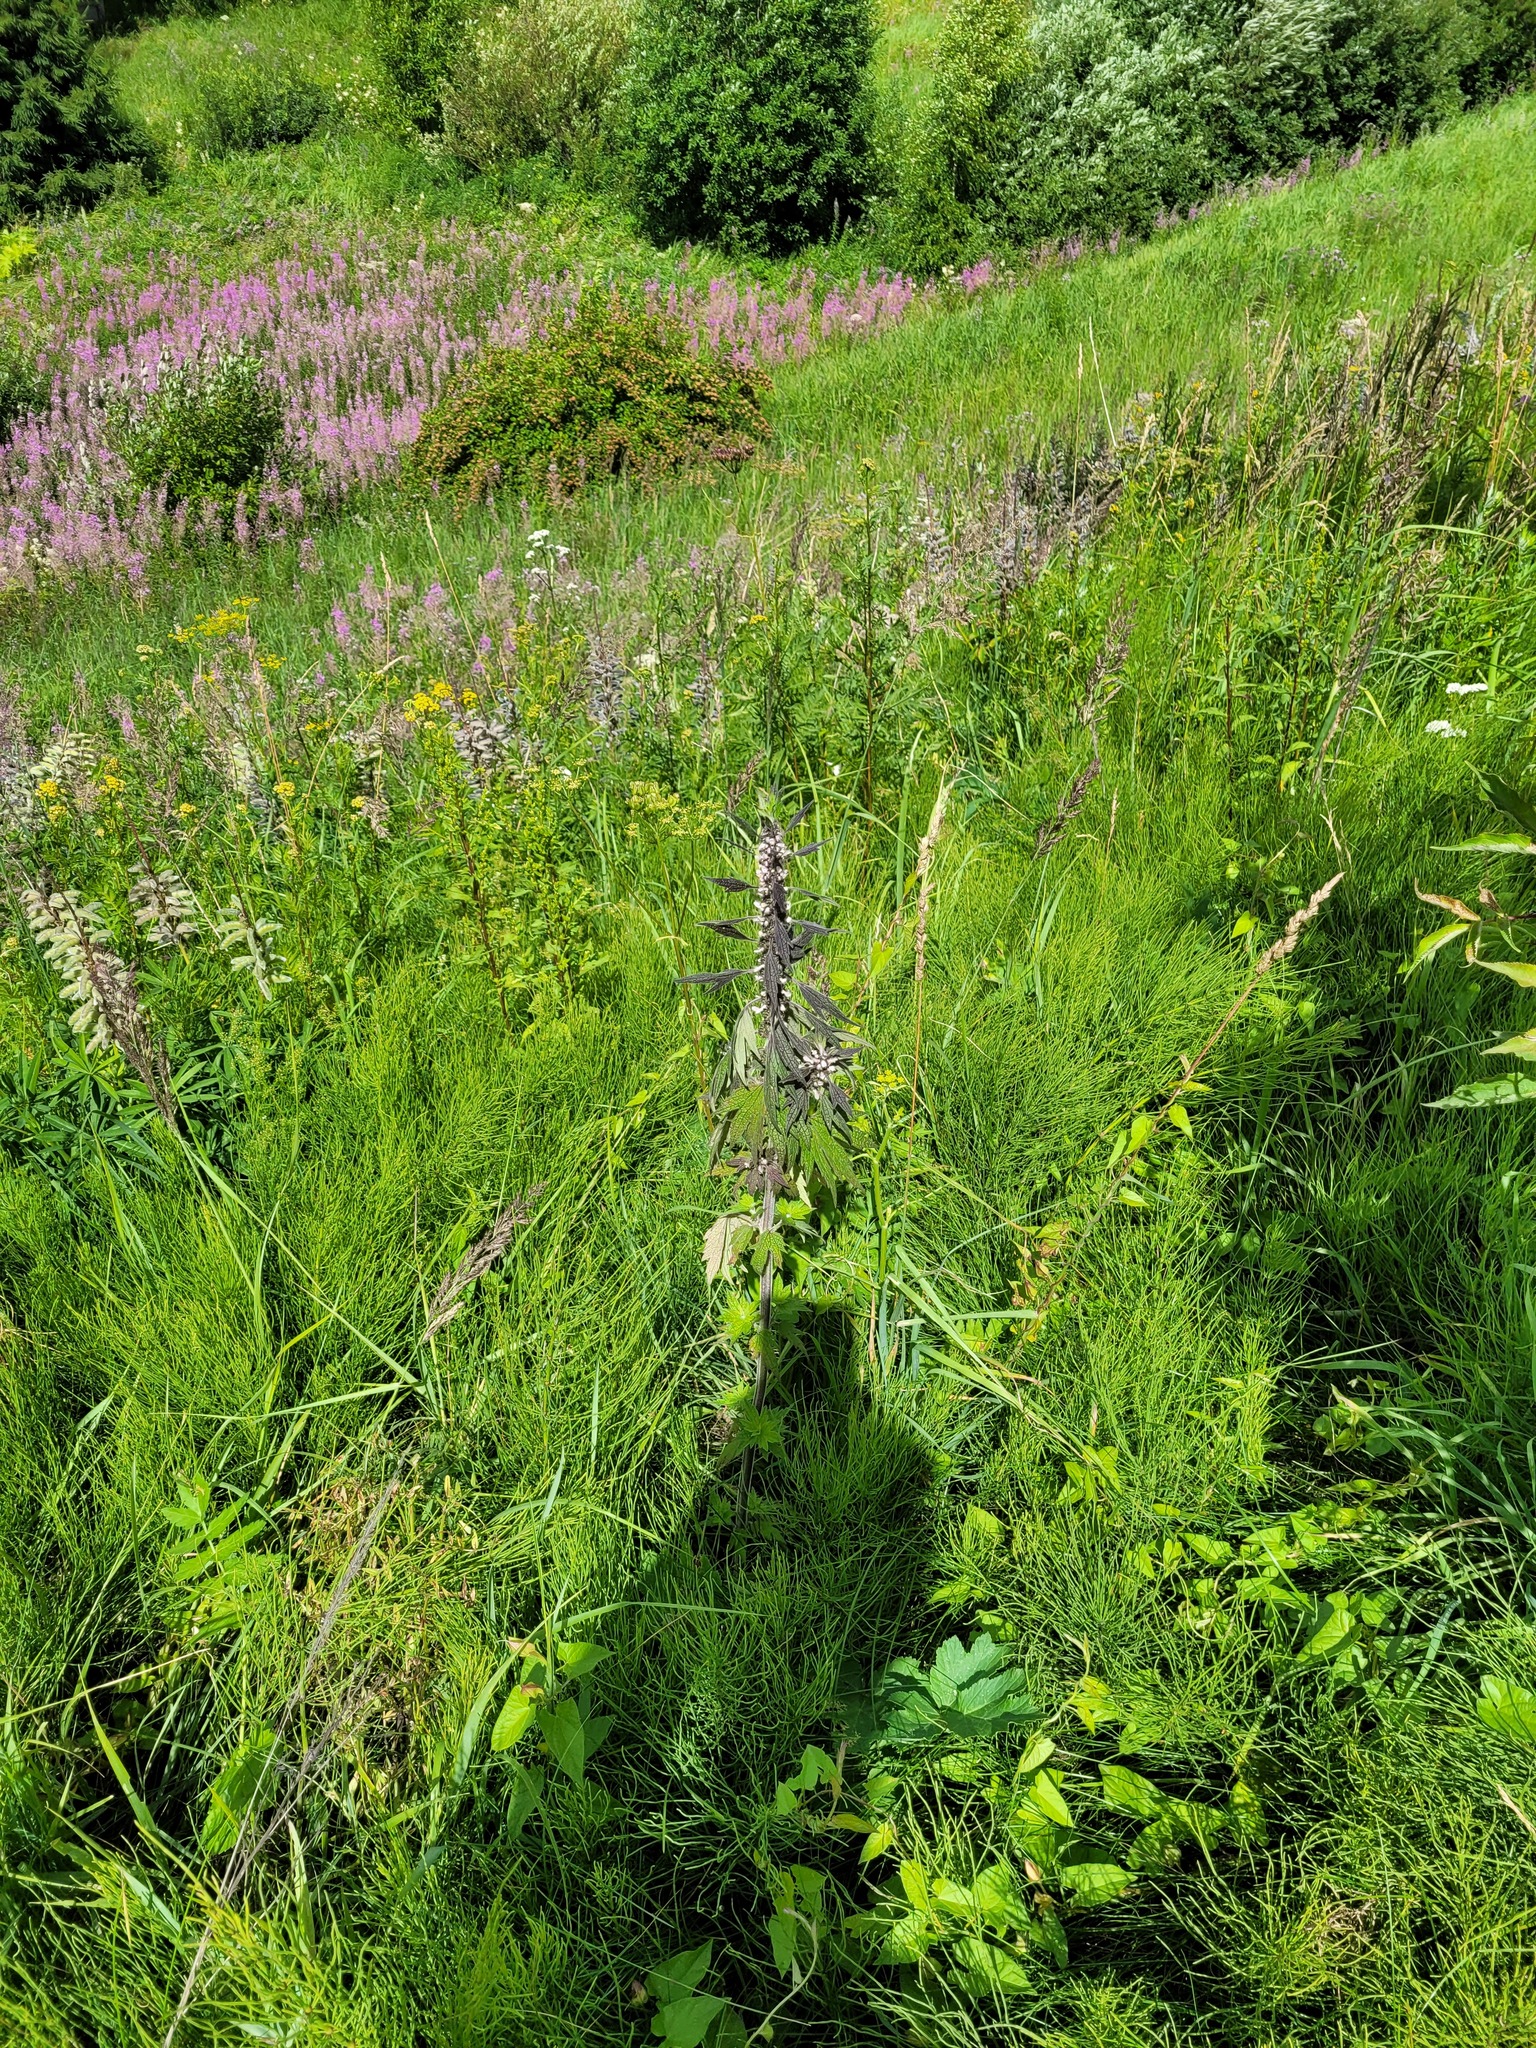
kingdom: Plantae
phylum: Tracheophyta
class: Magnoliopsida
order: Lamiales
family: Lamiaceae
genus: Leonurus
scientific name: Leonurus quinquelobatus
